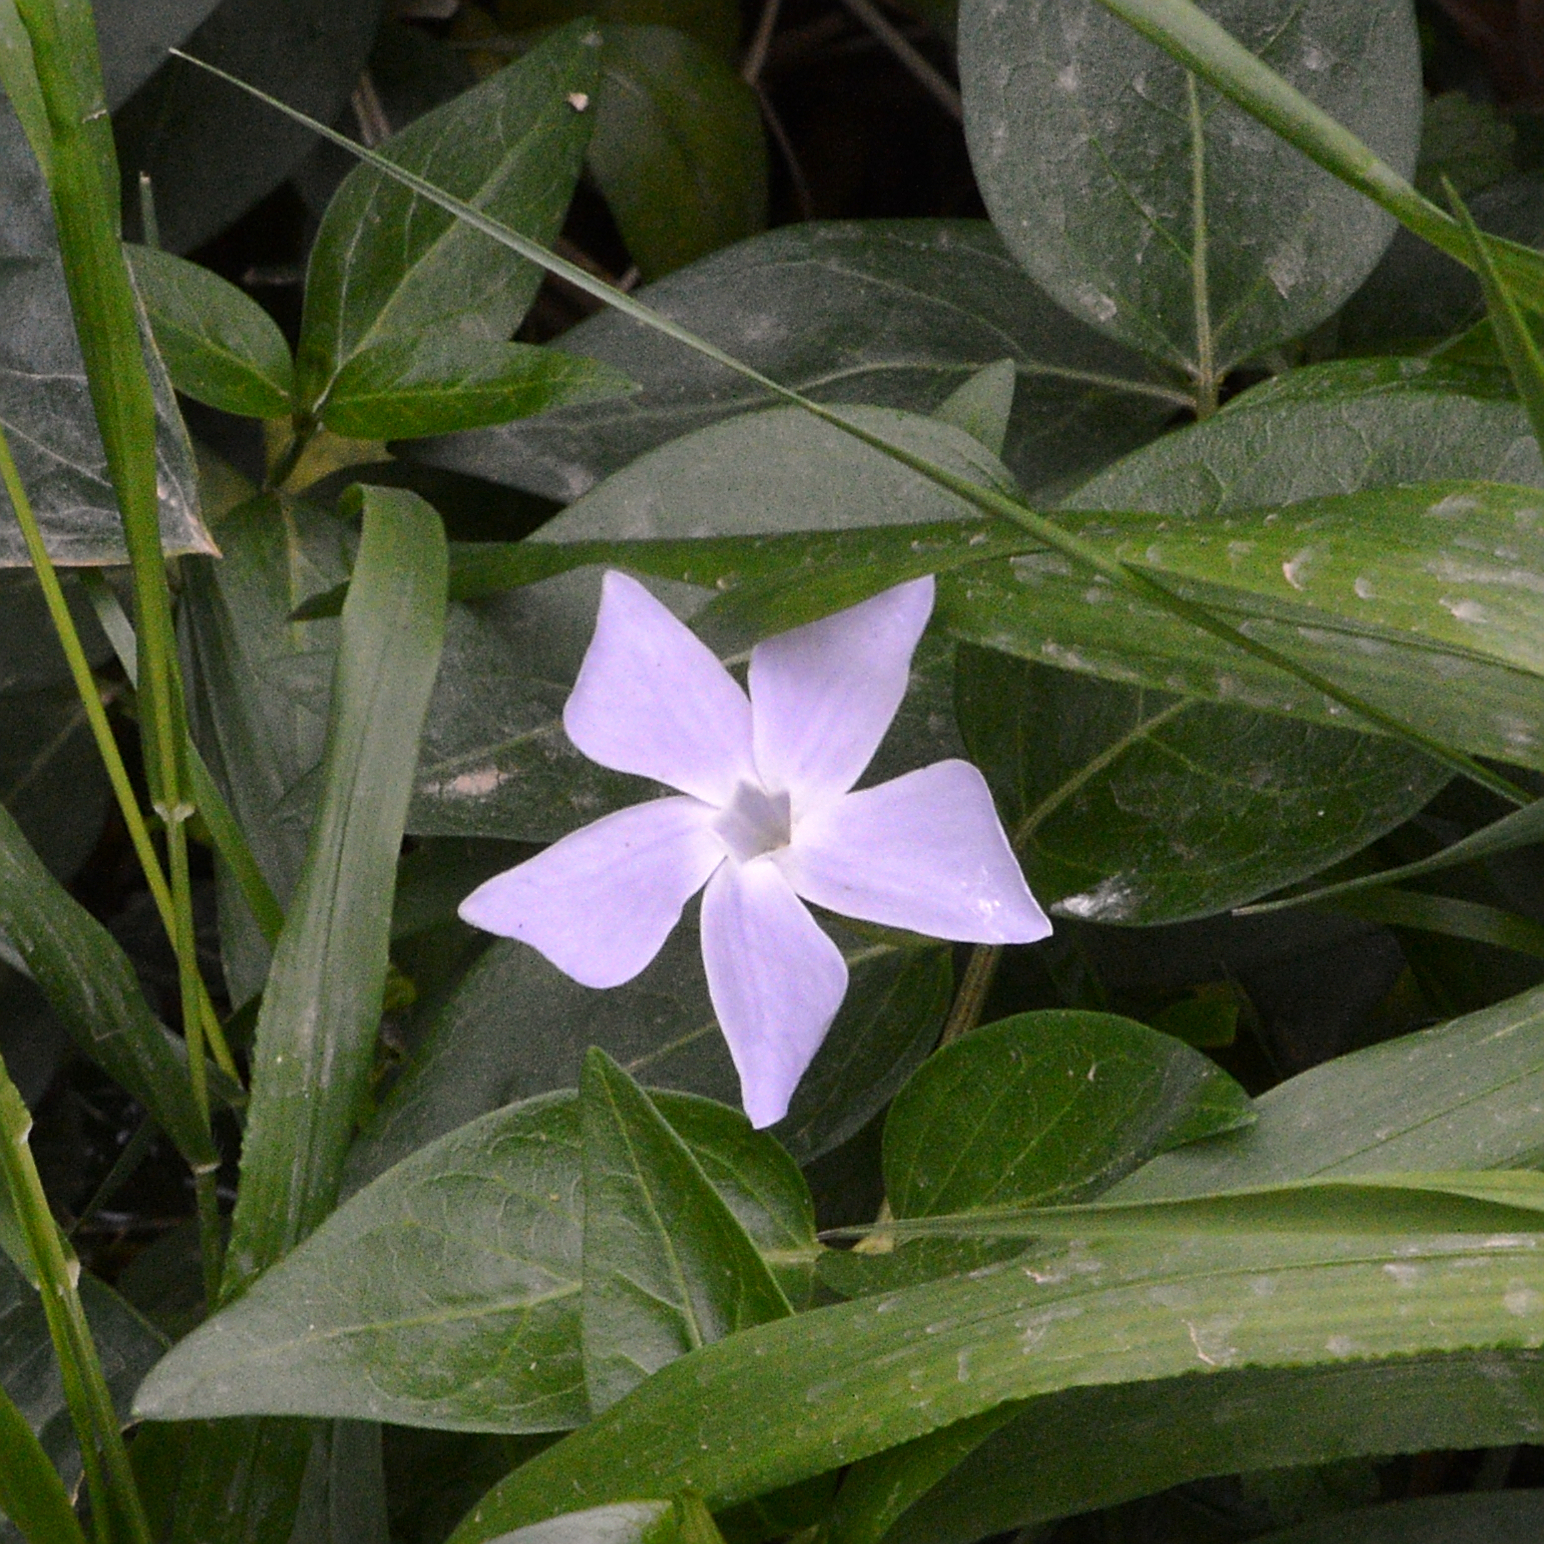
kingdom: Plantae
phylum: Tracheophyta
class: Magnoliopsida
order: Gentianales
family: Apocynaceae
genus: Vinca
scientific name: Vinca difformis
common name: Intermediate periwinkle
